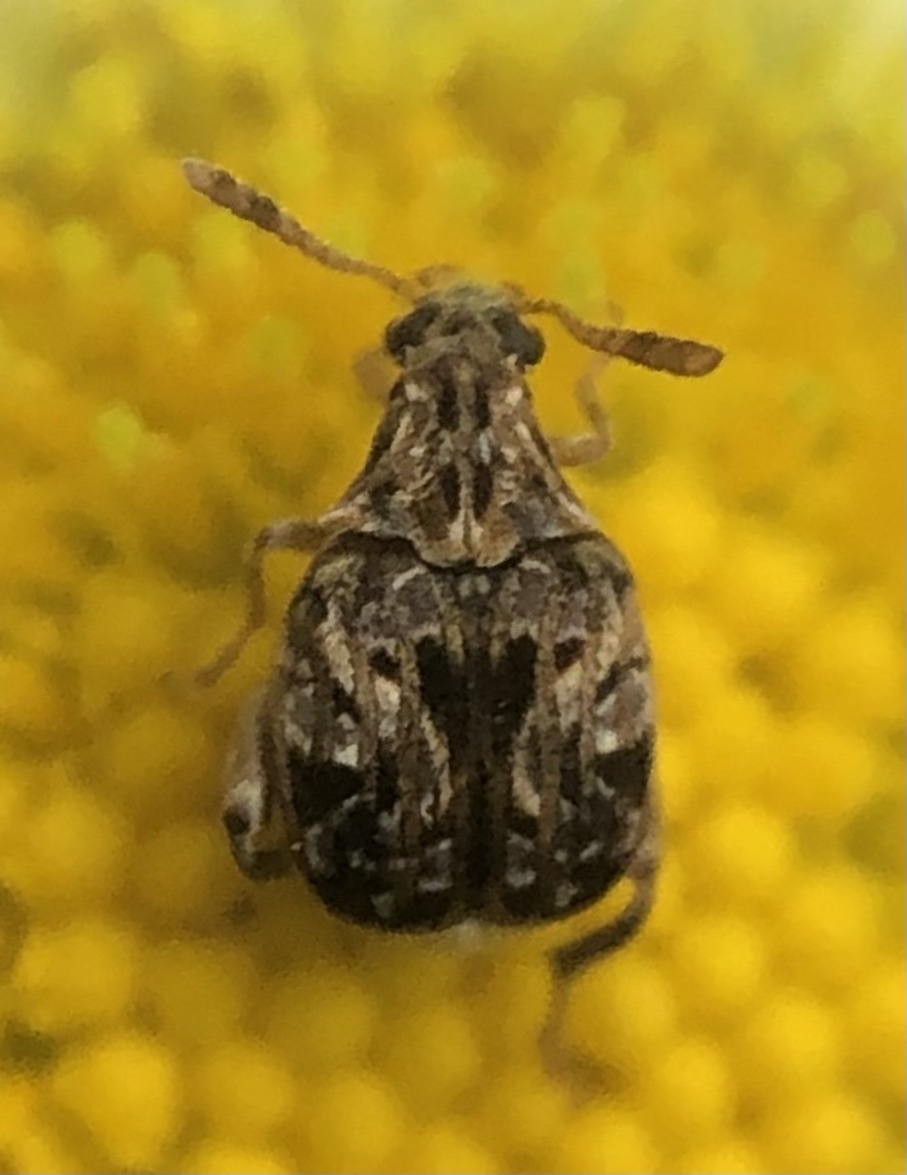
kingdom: Animalia
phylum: Arthropoda
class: Insecta
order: Coleoptera
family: Chrysomelidae
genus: Gibbobruchus
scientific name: Gibbobruchus mimus
